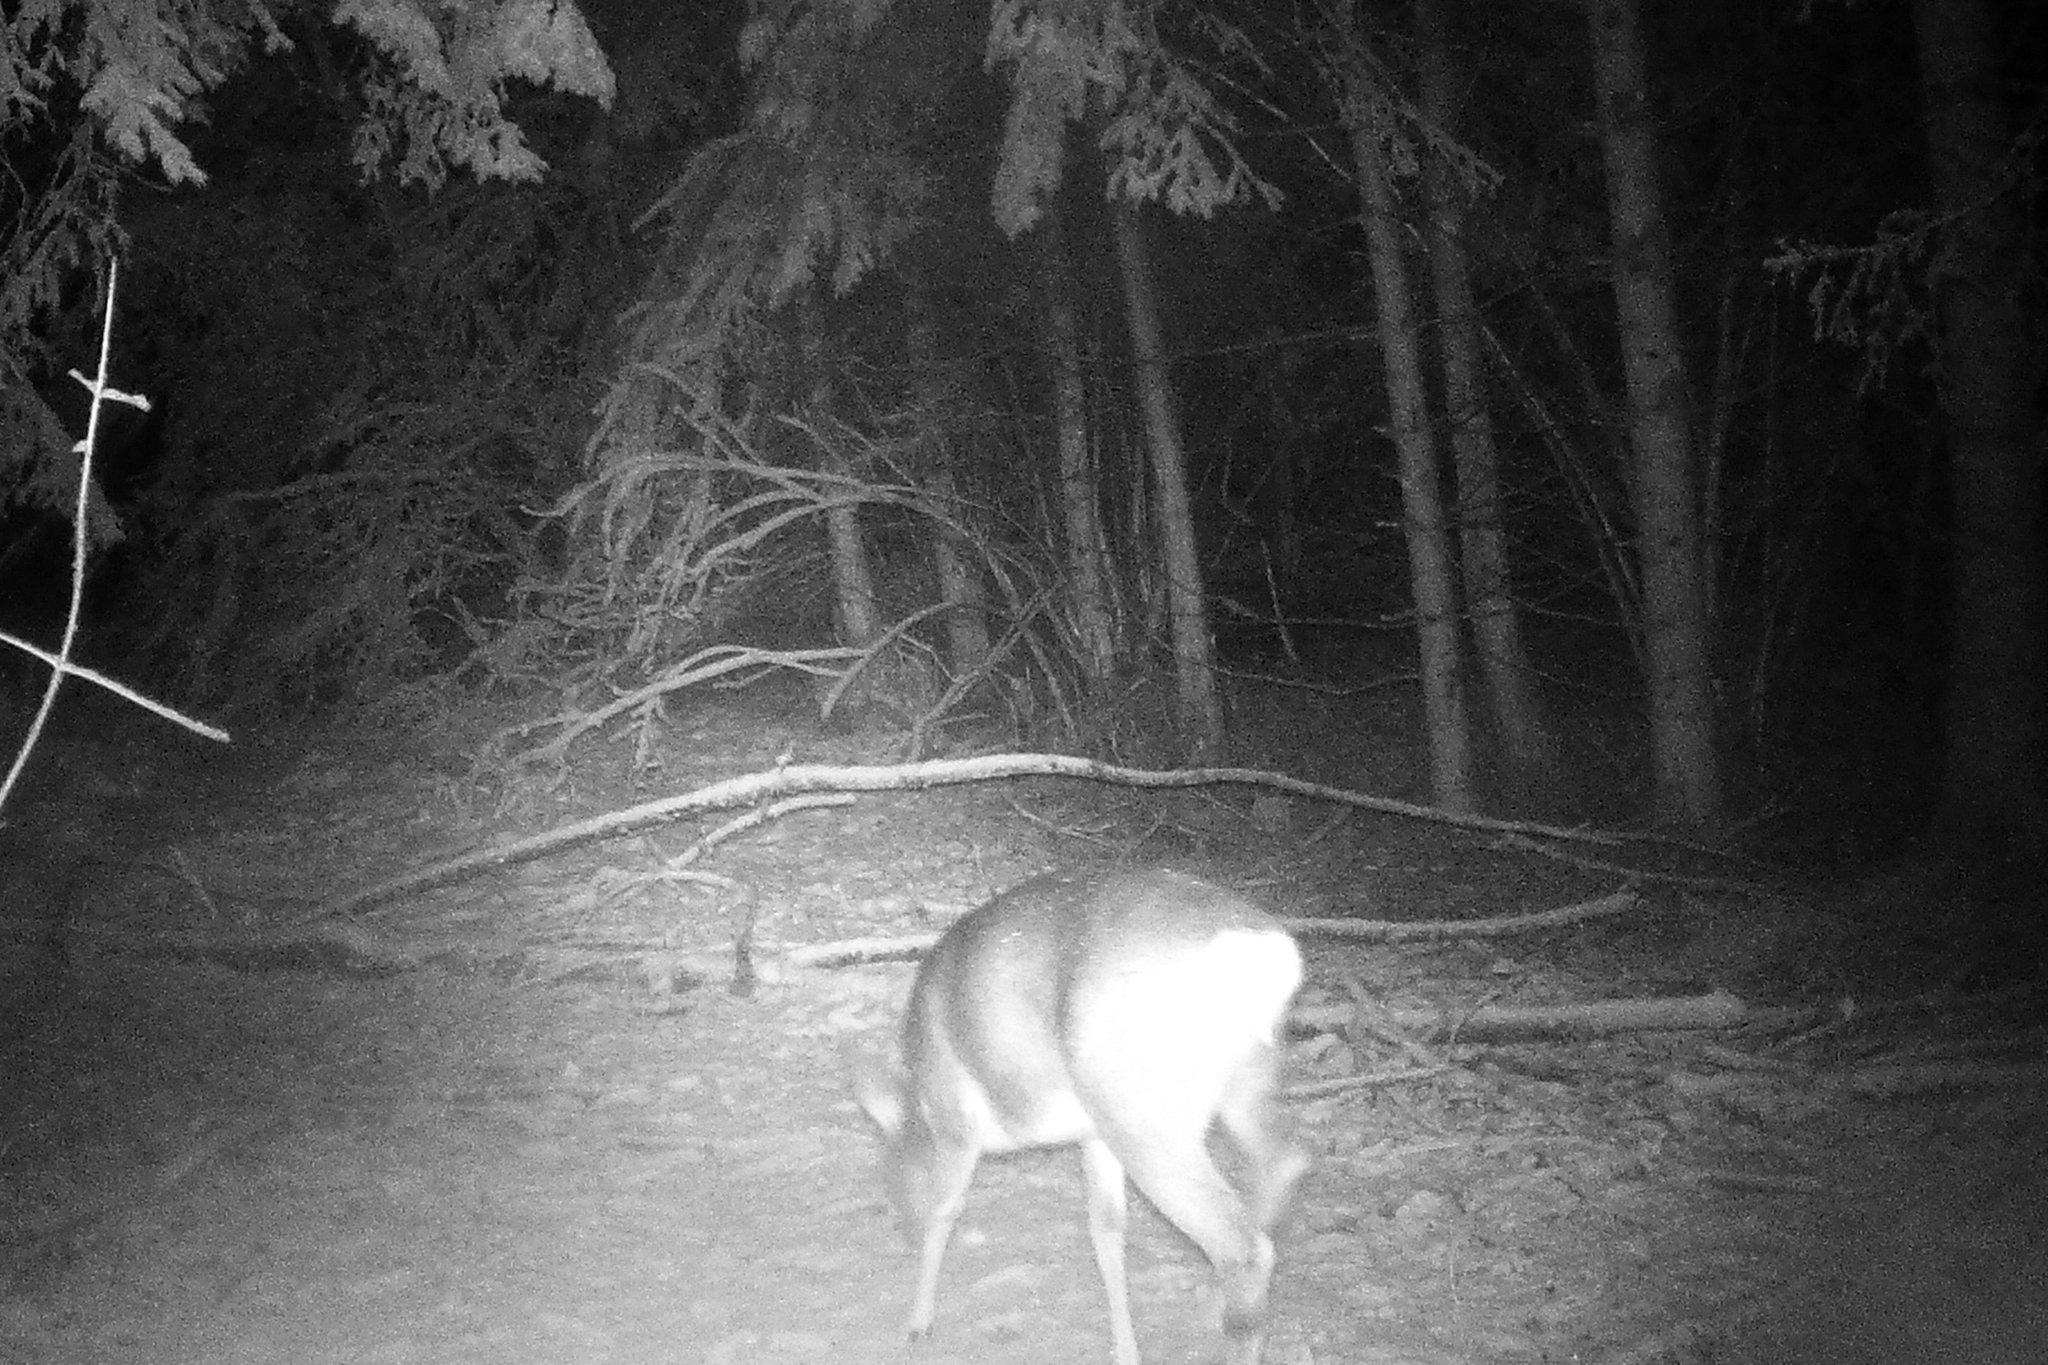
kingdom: Animalia
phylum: Chordata
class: Mammalia
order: Artiodactyla
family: Cervidae
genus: Capreolus
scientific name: Capreolus capreolus
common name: Western roe deer
